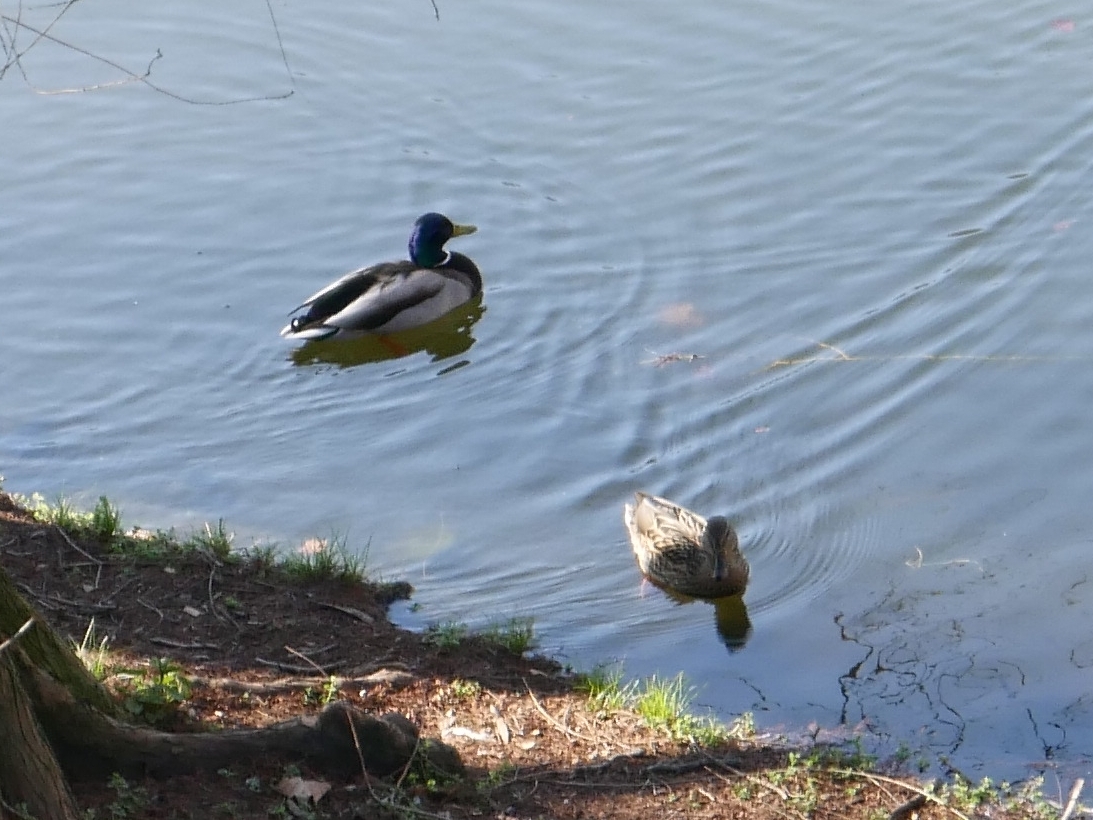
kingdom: Animalia
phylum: Chordata
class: Aves
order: Anseriformes
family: Anatidae
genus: Anas
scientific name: Anas platyrhynchos
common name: Mallard
